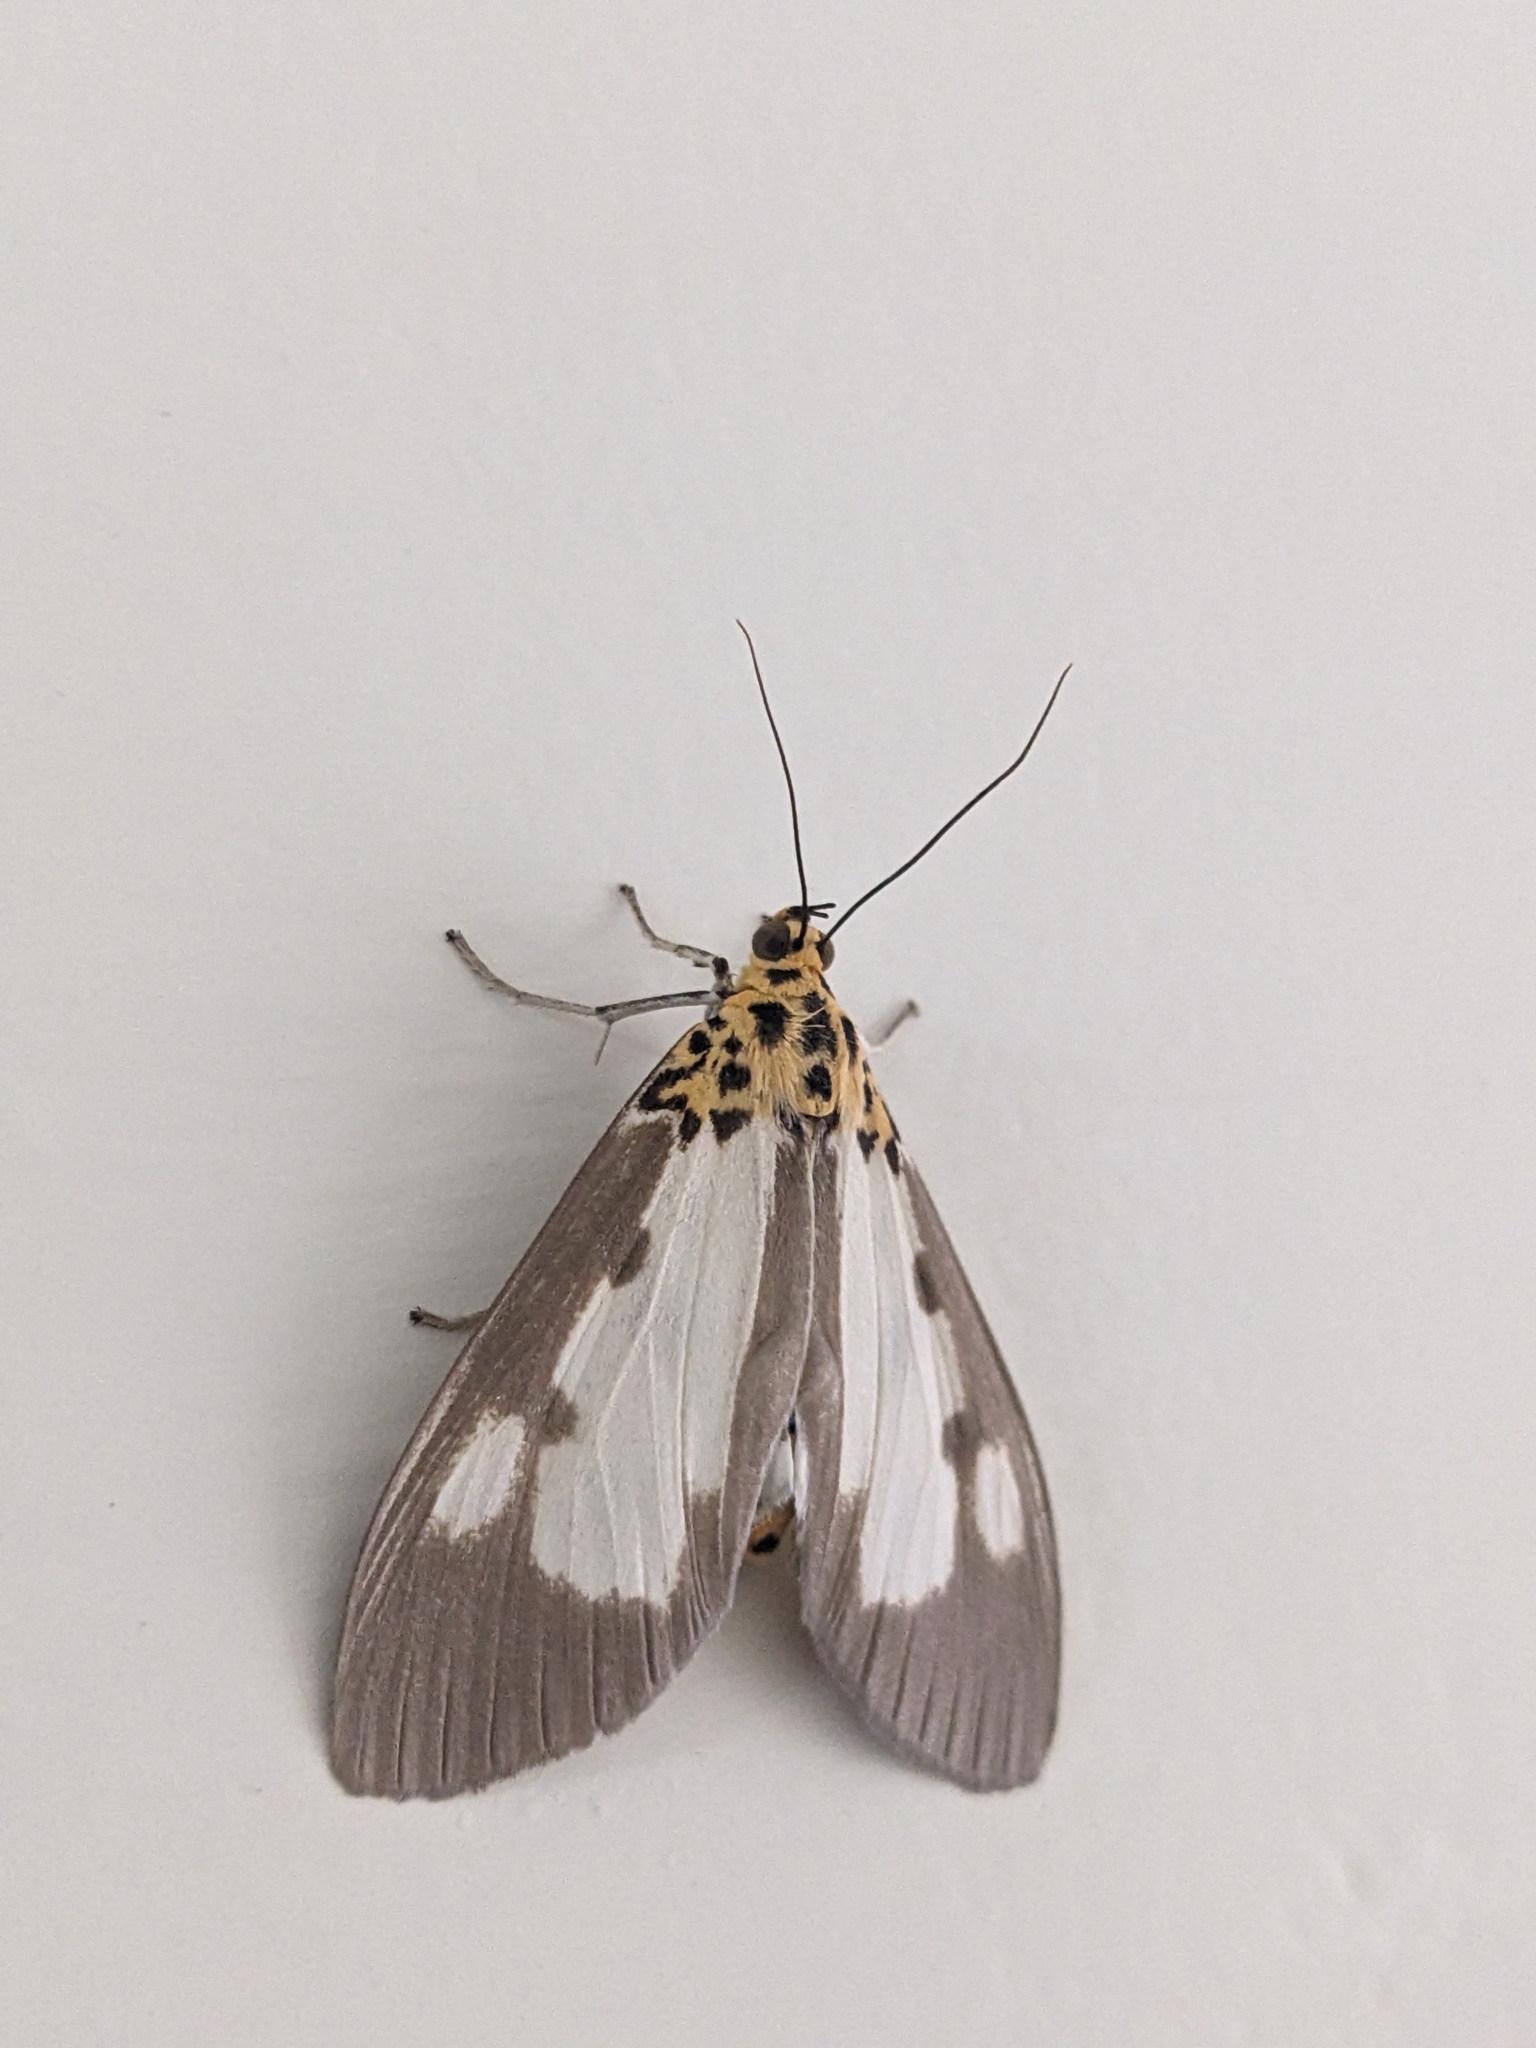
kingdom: Animalia
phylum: Arthropoda
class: Insecta
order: Lepidoptera
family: Erebidae
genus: Asota
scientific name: Asota plana
